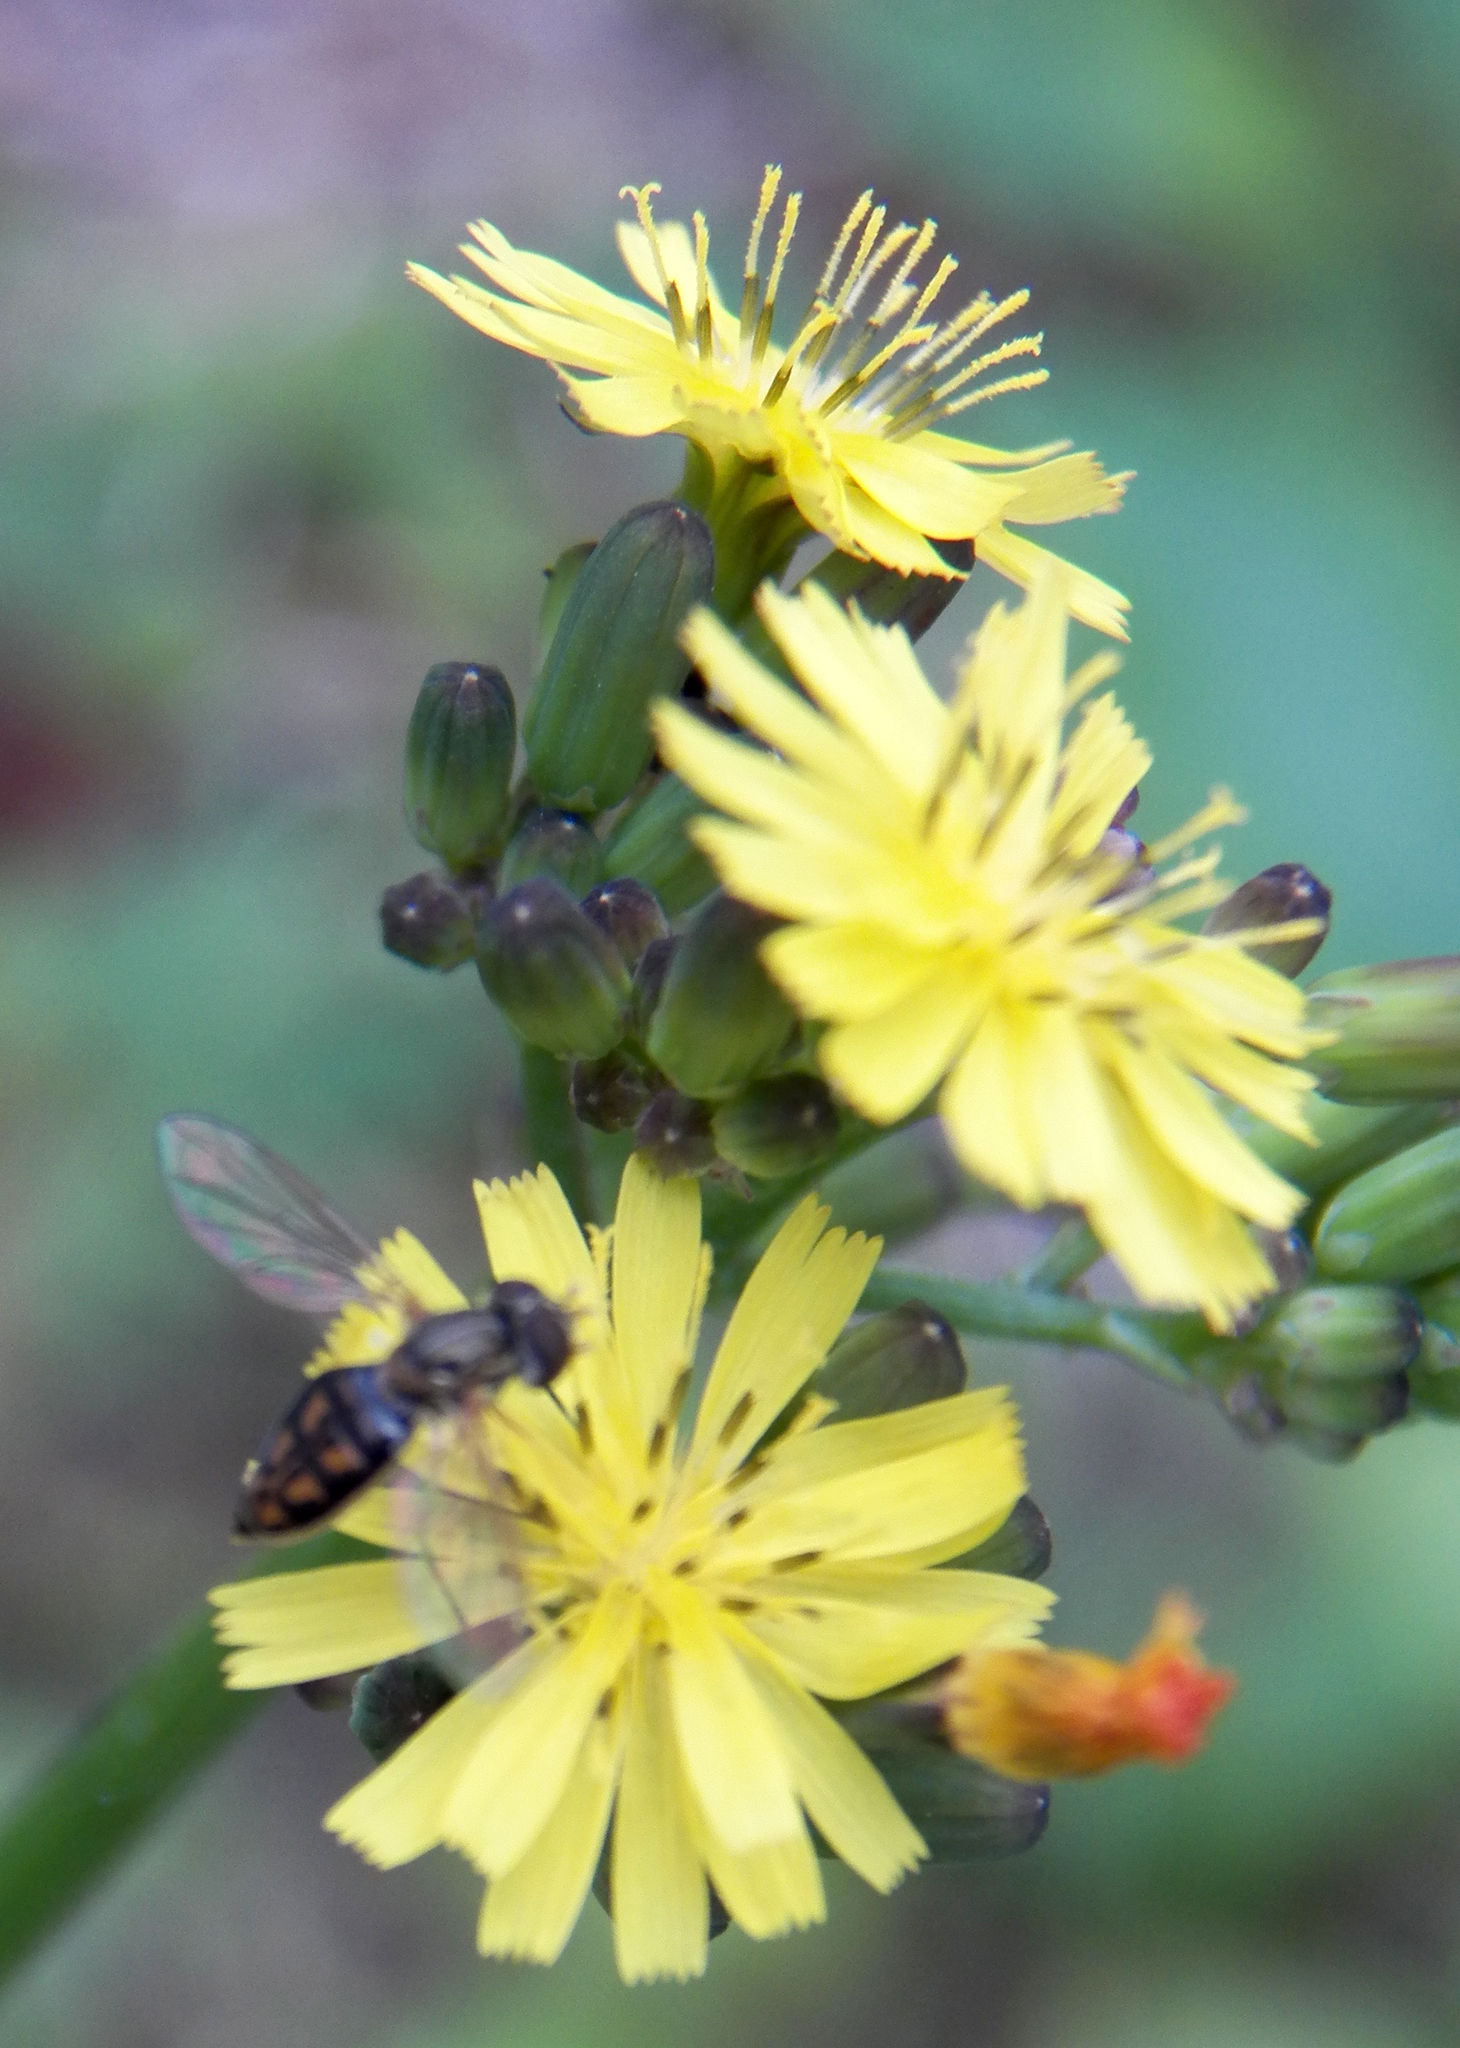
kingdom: Animalia
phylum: Arthropoda
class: Insecta
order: Diptera
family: Syrphidae
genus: Toxomerus
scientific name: Toxomerus marginatus
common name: Syrphid fly
